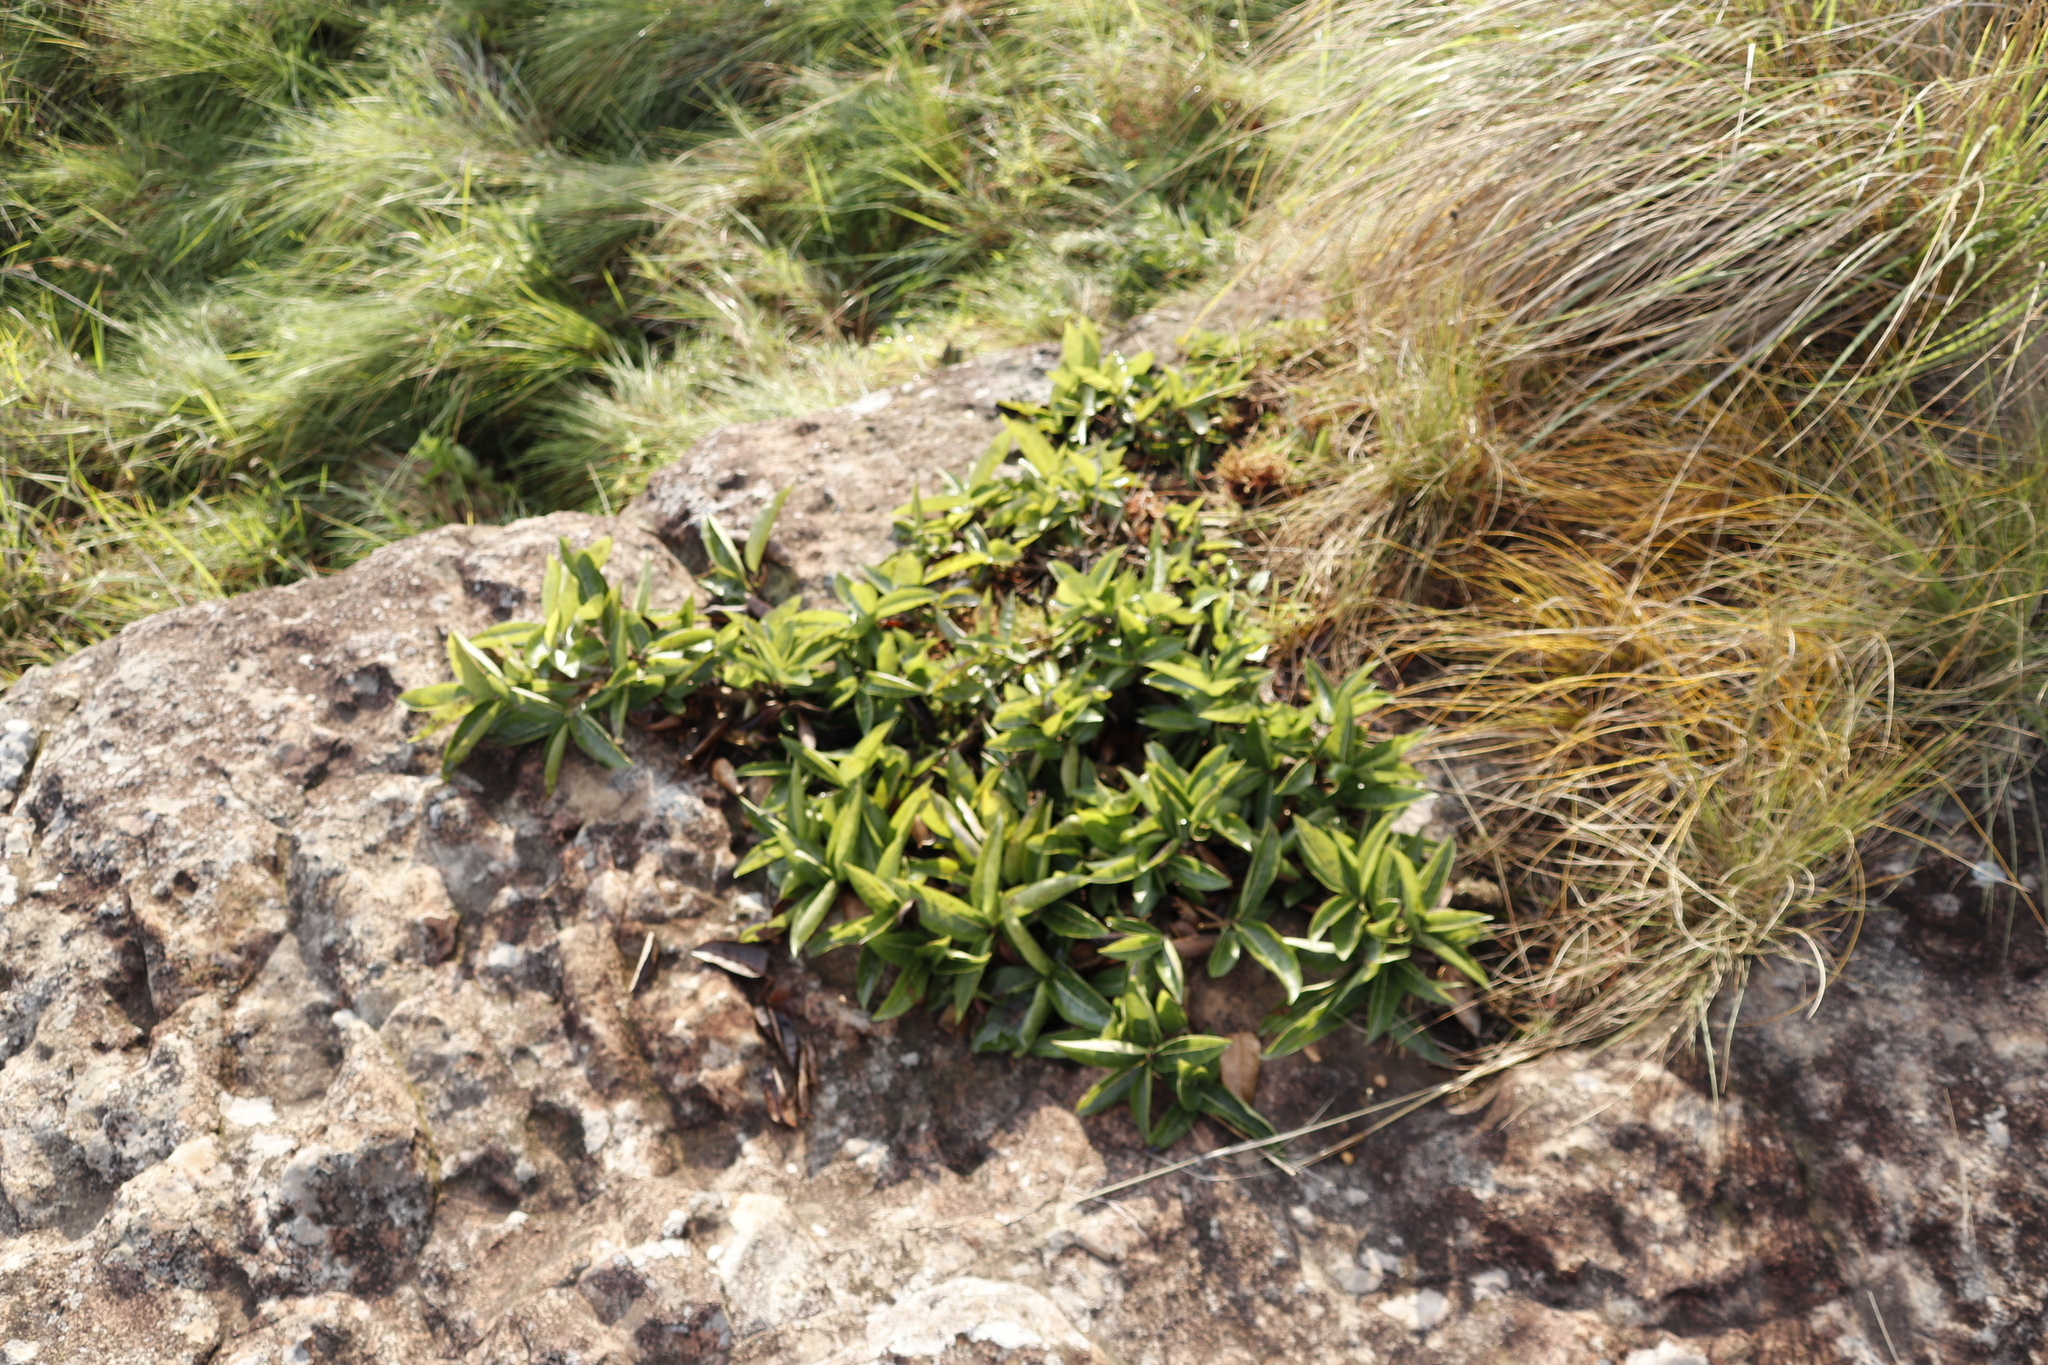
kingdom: Plantae
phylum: Tracheophyta
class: Magnoliopsida
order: Rosales
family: Moraceae
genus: Ficus
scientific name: Ficus ingens
